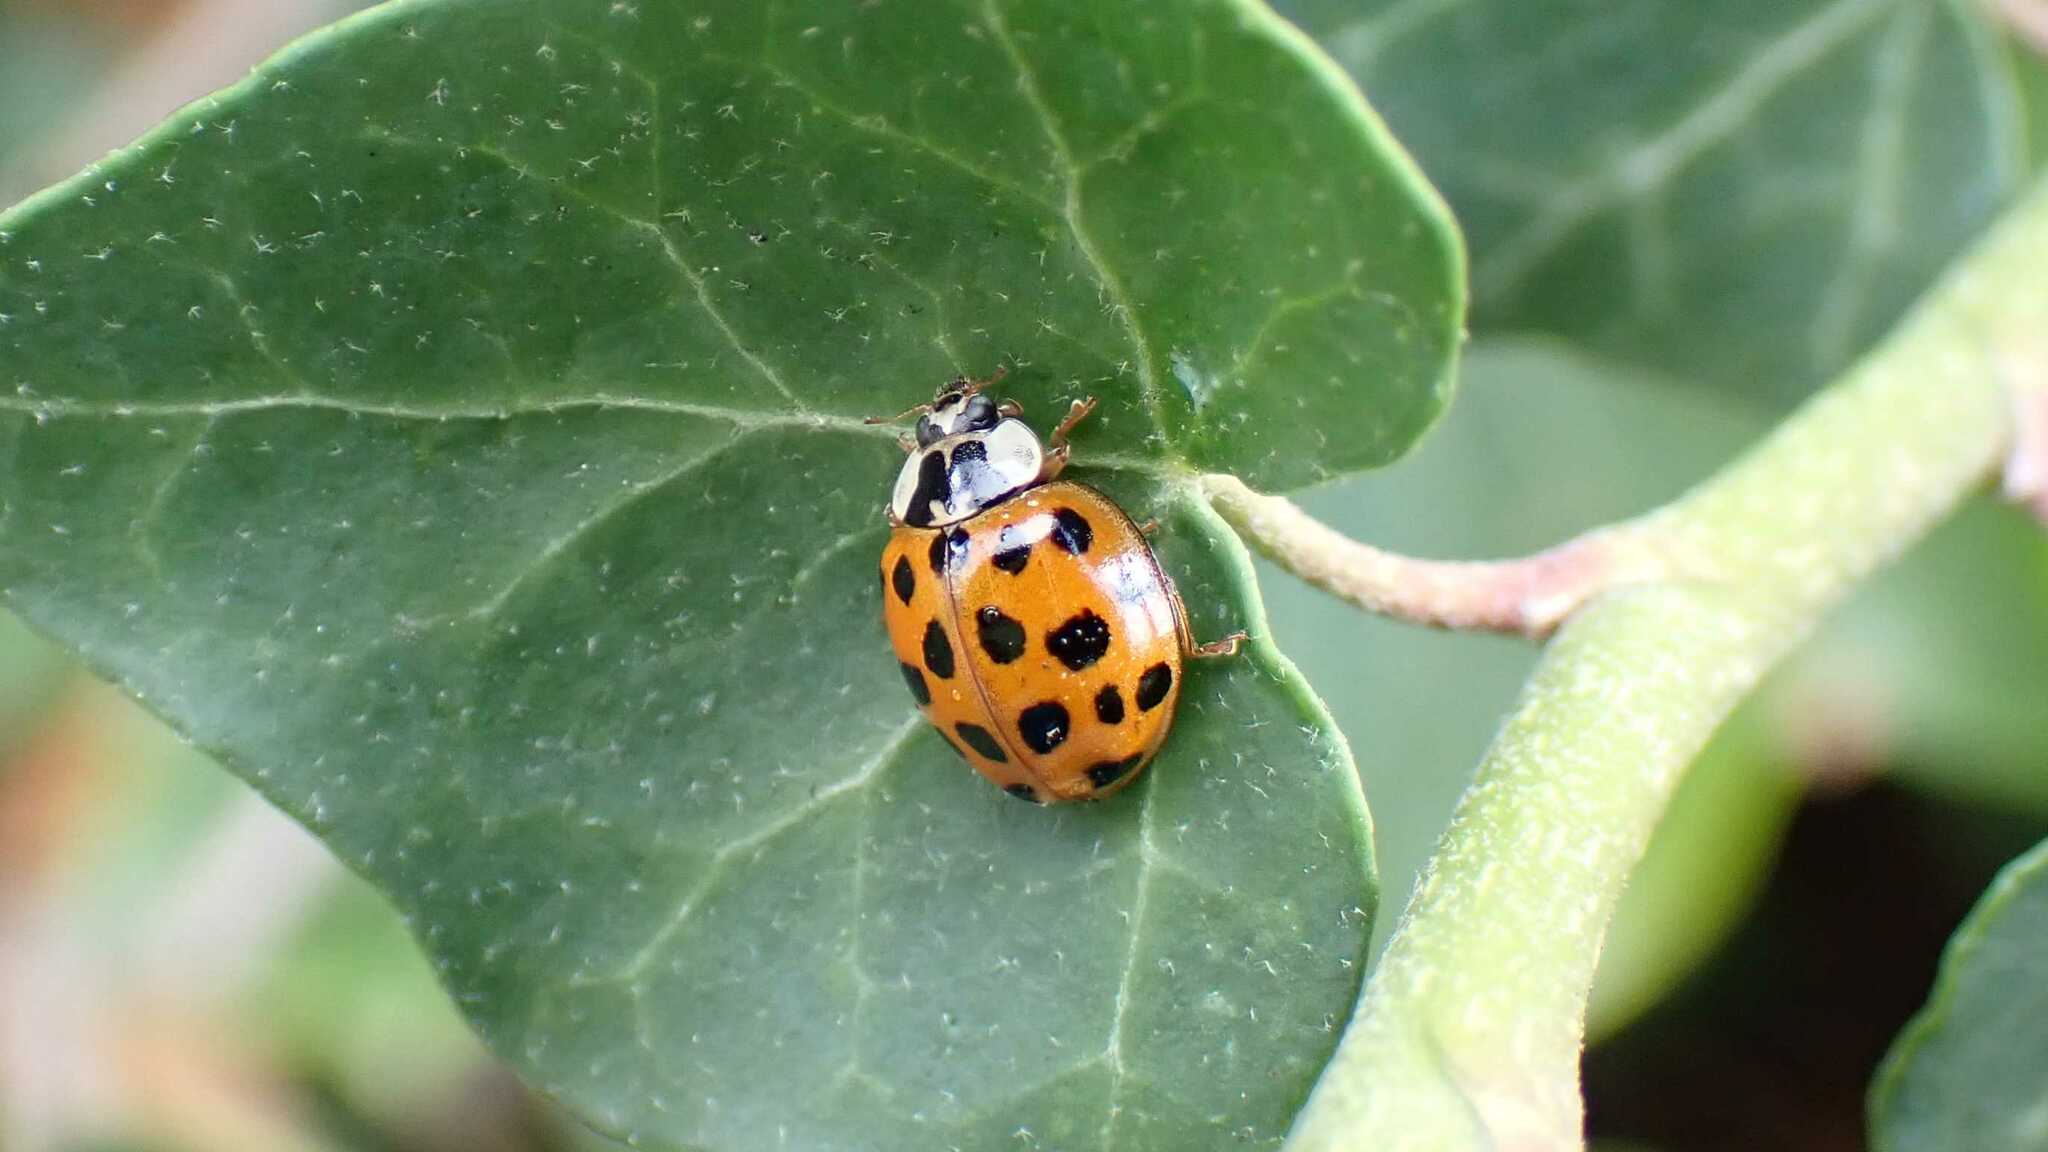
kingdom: Animalia
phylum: Arthropoda
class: Insecta
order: Coleoptera
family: Coccinellidae
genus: Harmonia
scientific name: Harmonia axyridis
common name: Harlequin ladybird
